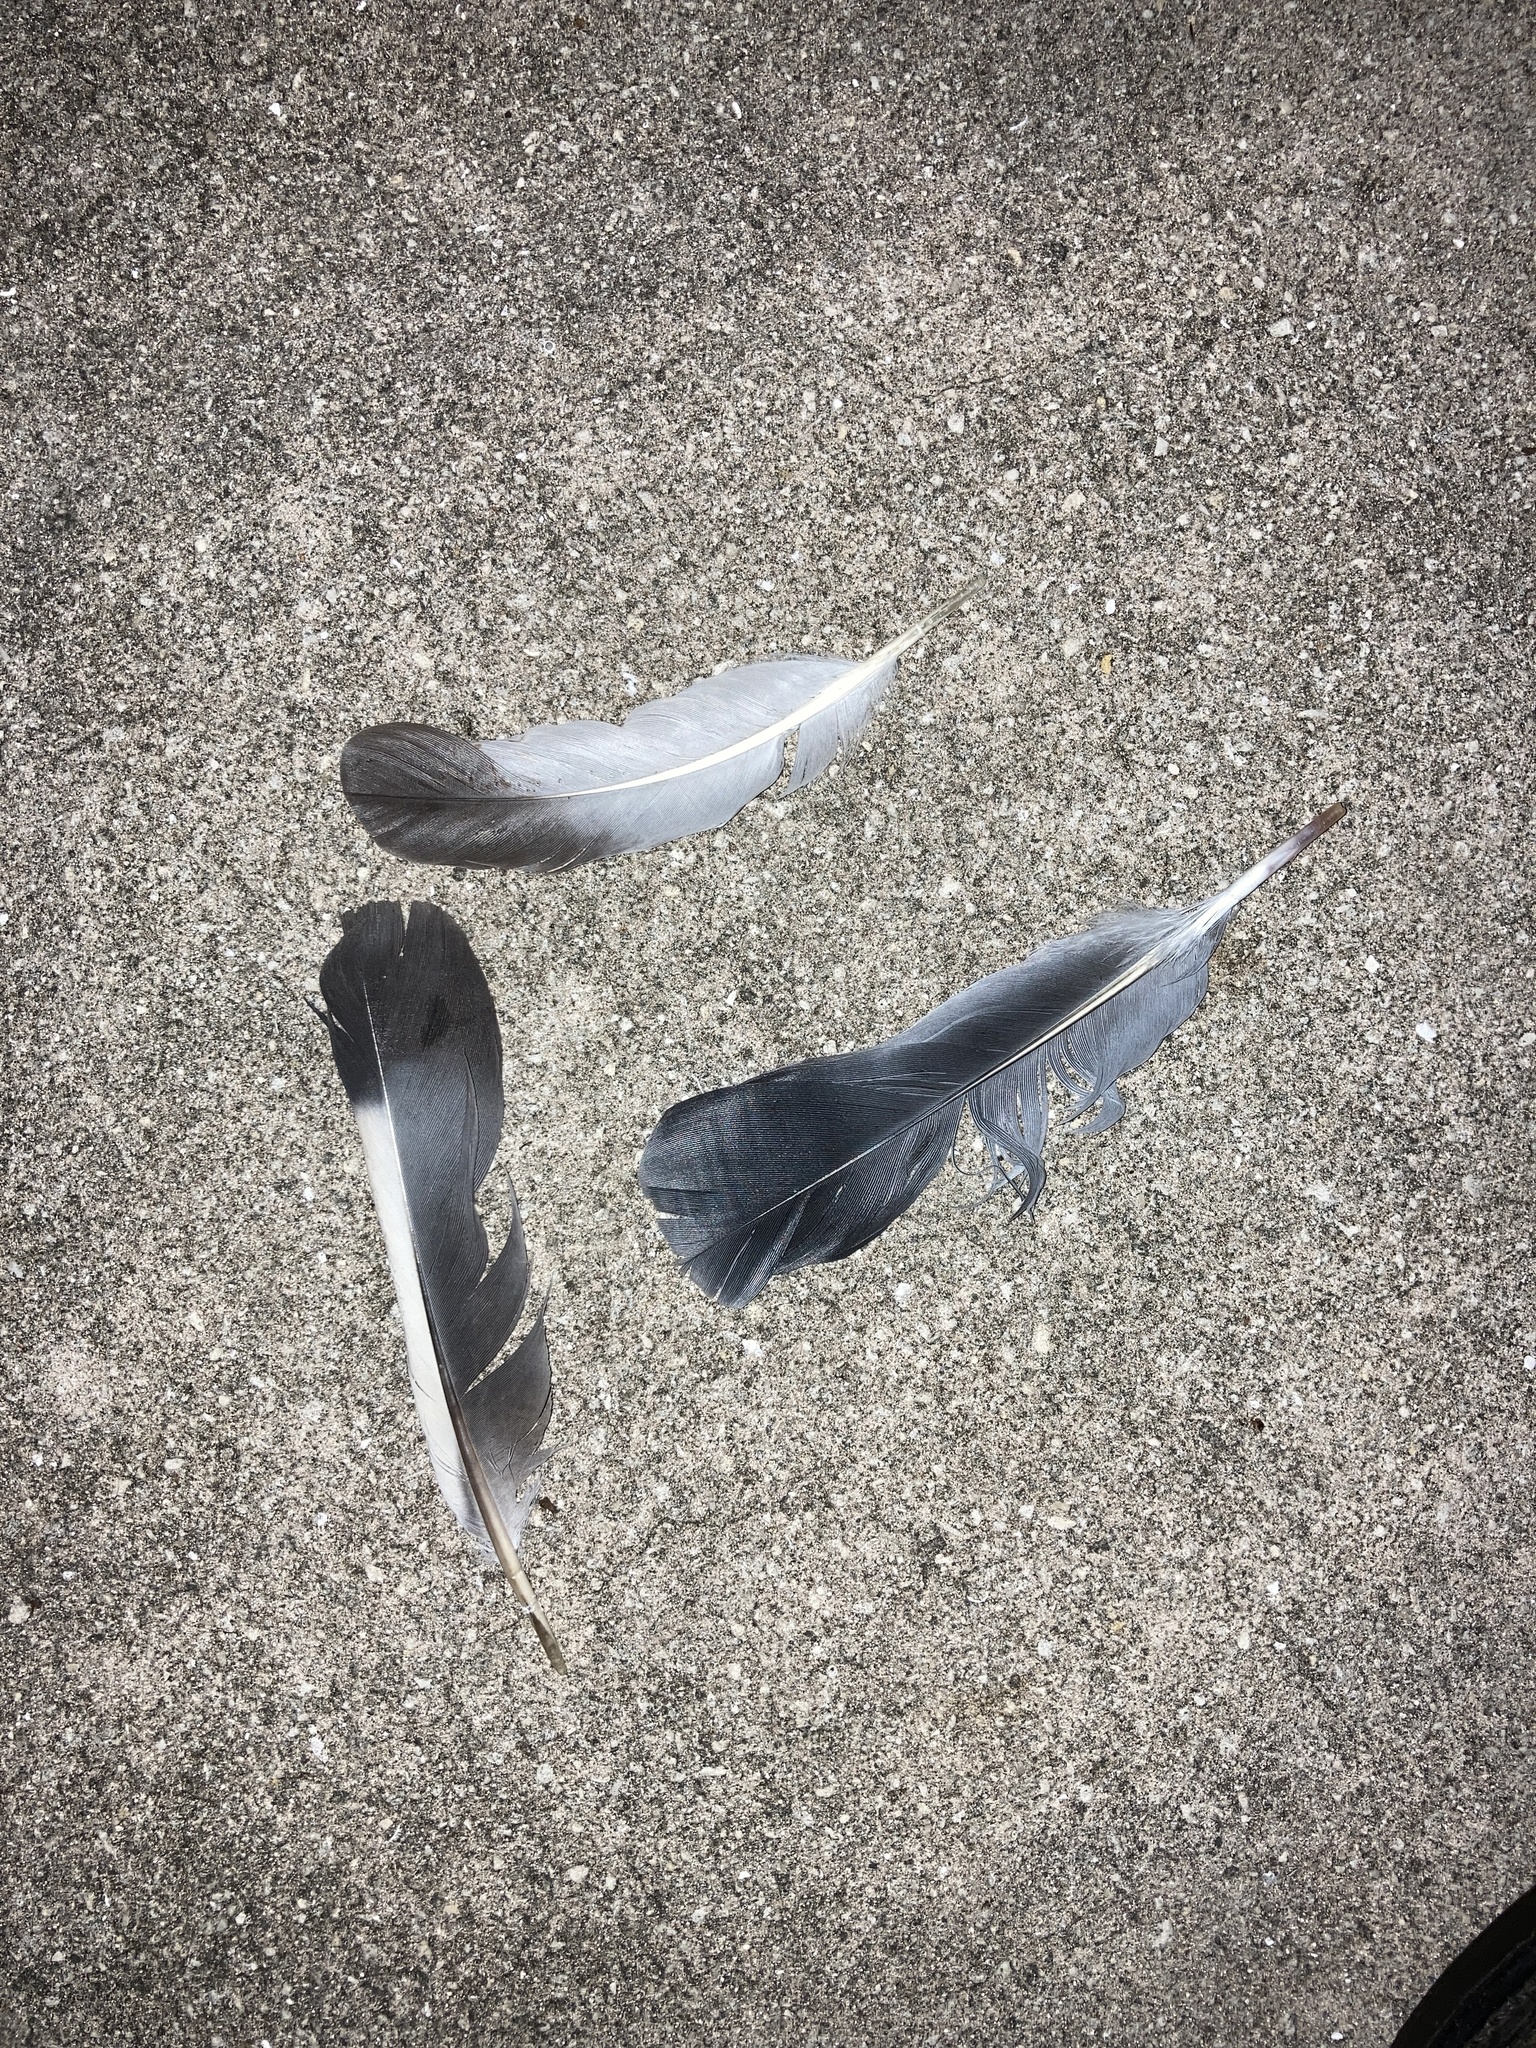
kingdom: Animalia
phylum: Chordata
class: Aves
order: Columbiformes
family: Columbidae
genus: Columba
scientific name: Columba livia
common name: Rock pigeon
